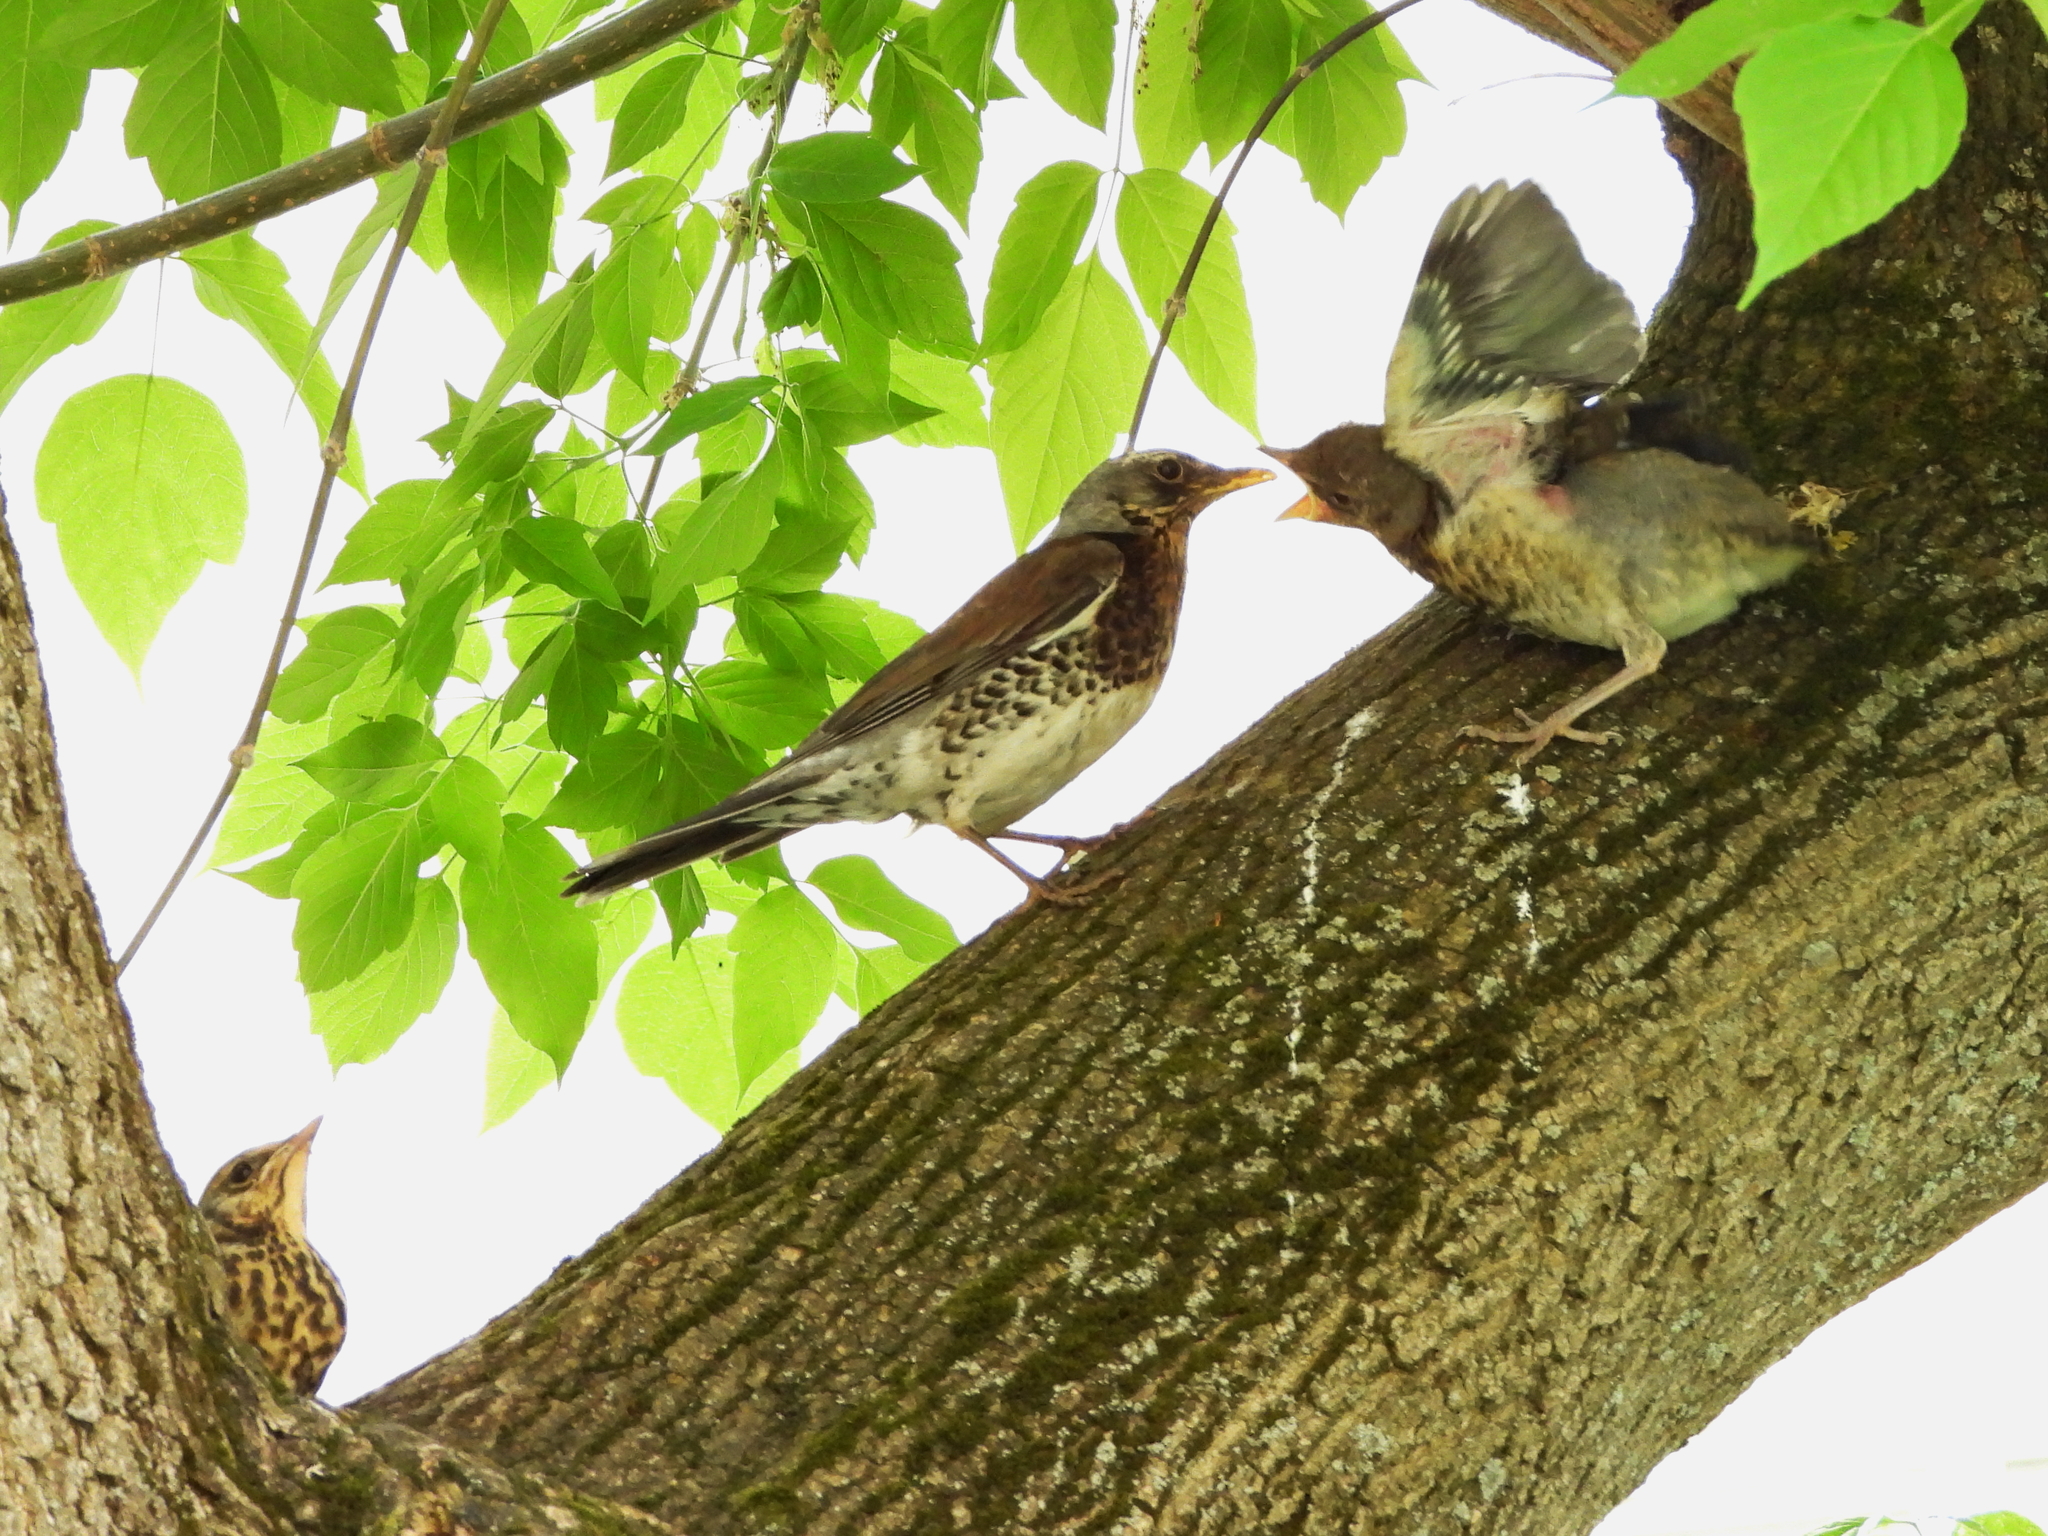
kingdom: Animalia
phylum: Chordata
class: Aves
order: Passeriformes
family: Turdidae
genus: Turdus
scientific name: Turdus pilaris
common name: Fieldfare
